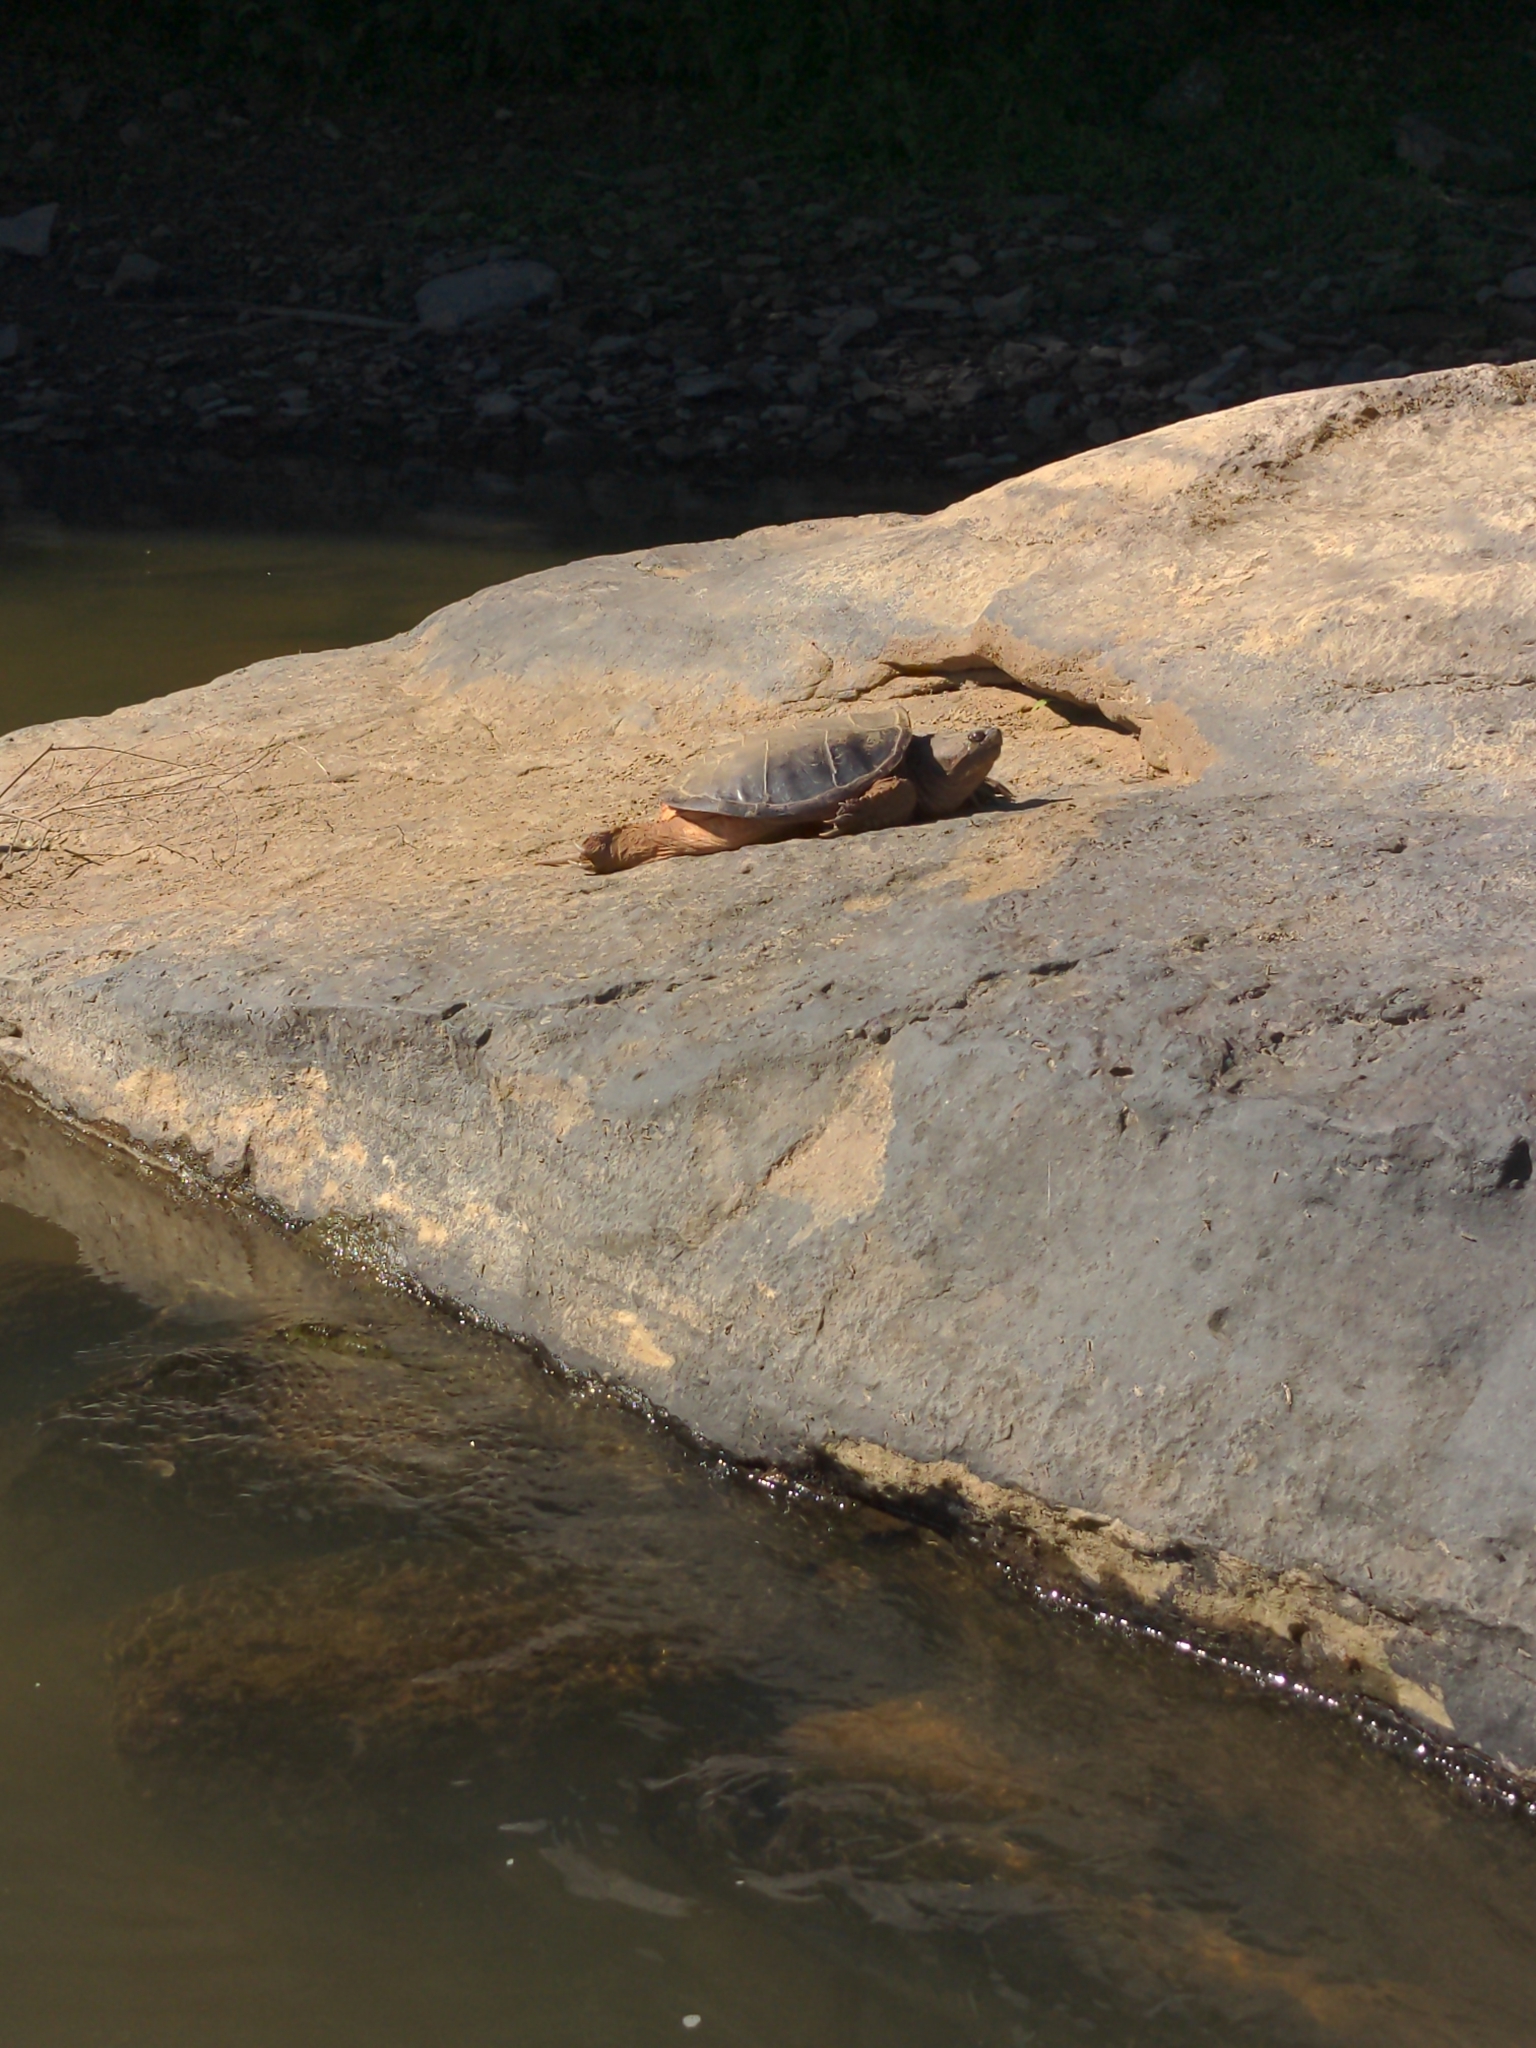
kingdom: Animalia
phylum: Chordata
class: Testudines
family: Chelydridae
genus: Chelydra
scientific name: Chelydra serpentina
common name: Common snapping turtle
